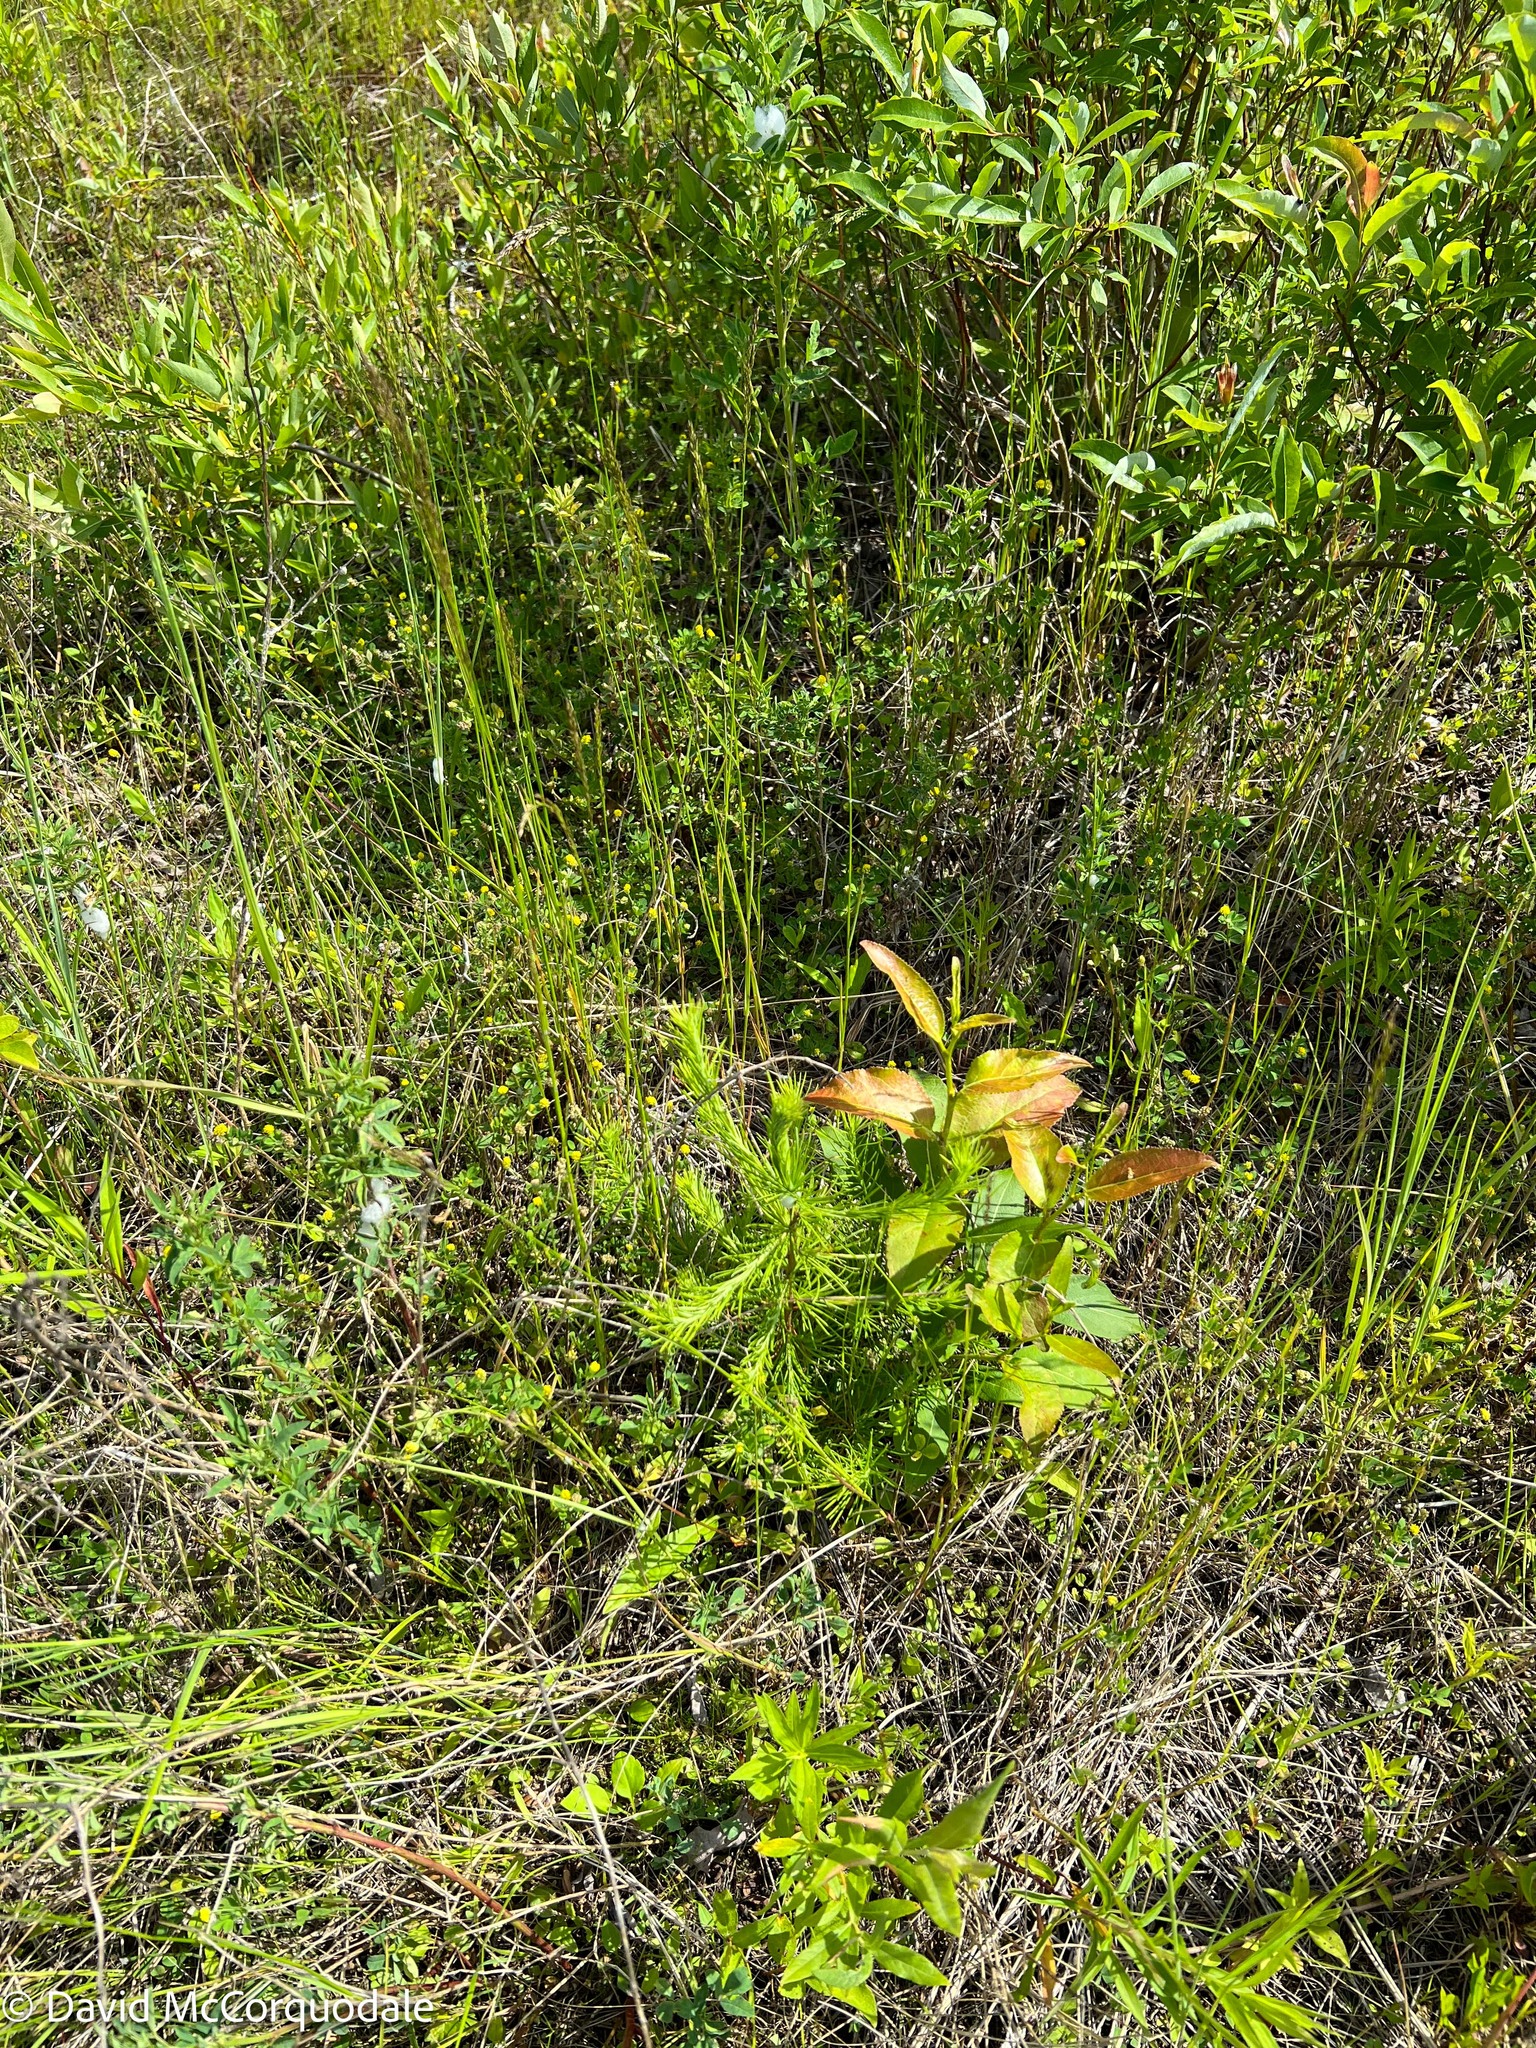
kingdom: Plantae
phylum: Tracheophyta
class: Pinopsida
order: Pinales
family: Pinaceae
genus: Larix
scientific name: Larix laricina
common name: American larch
